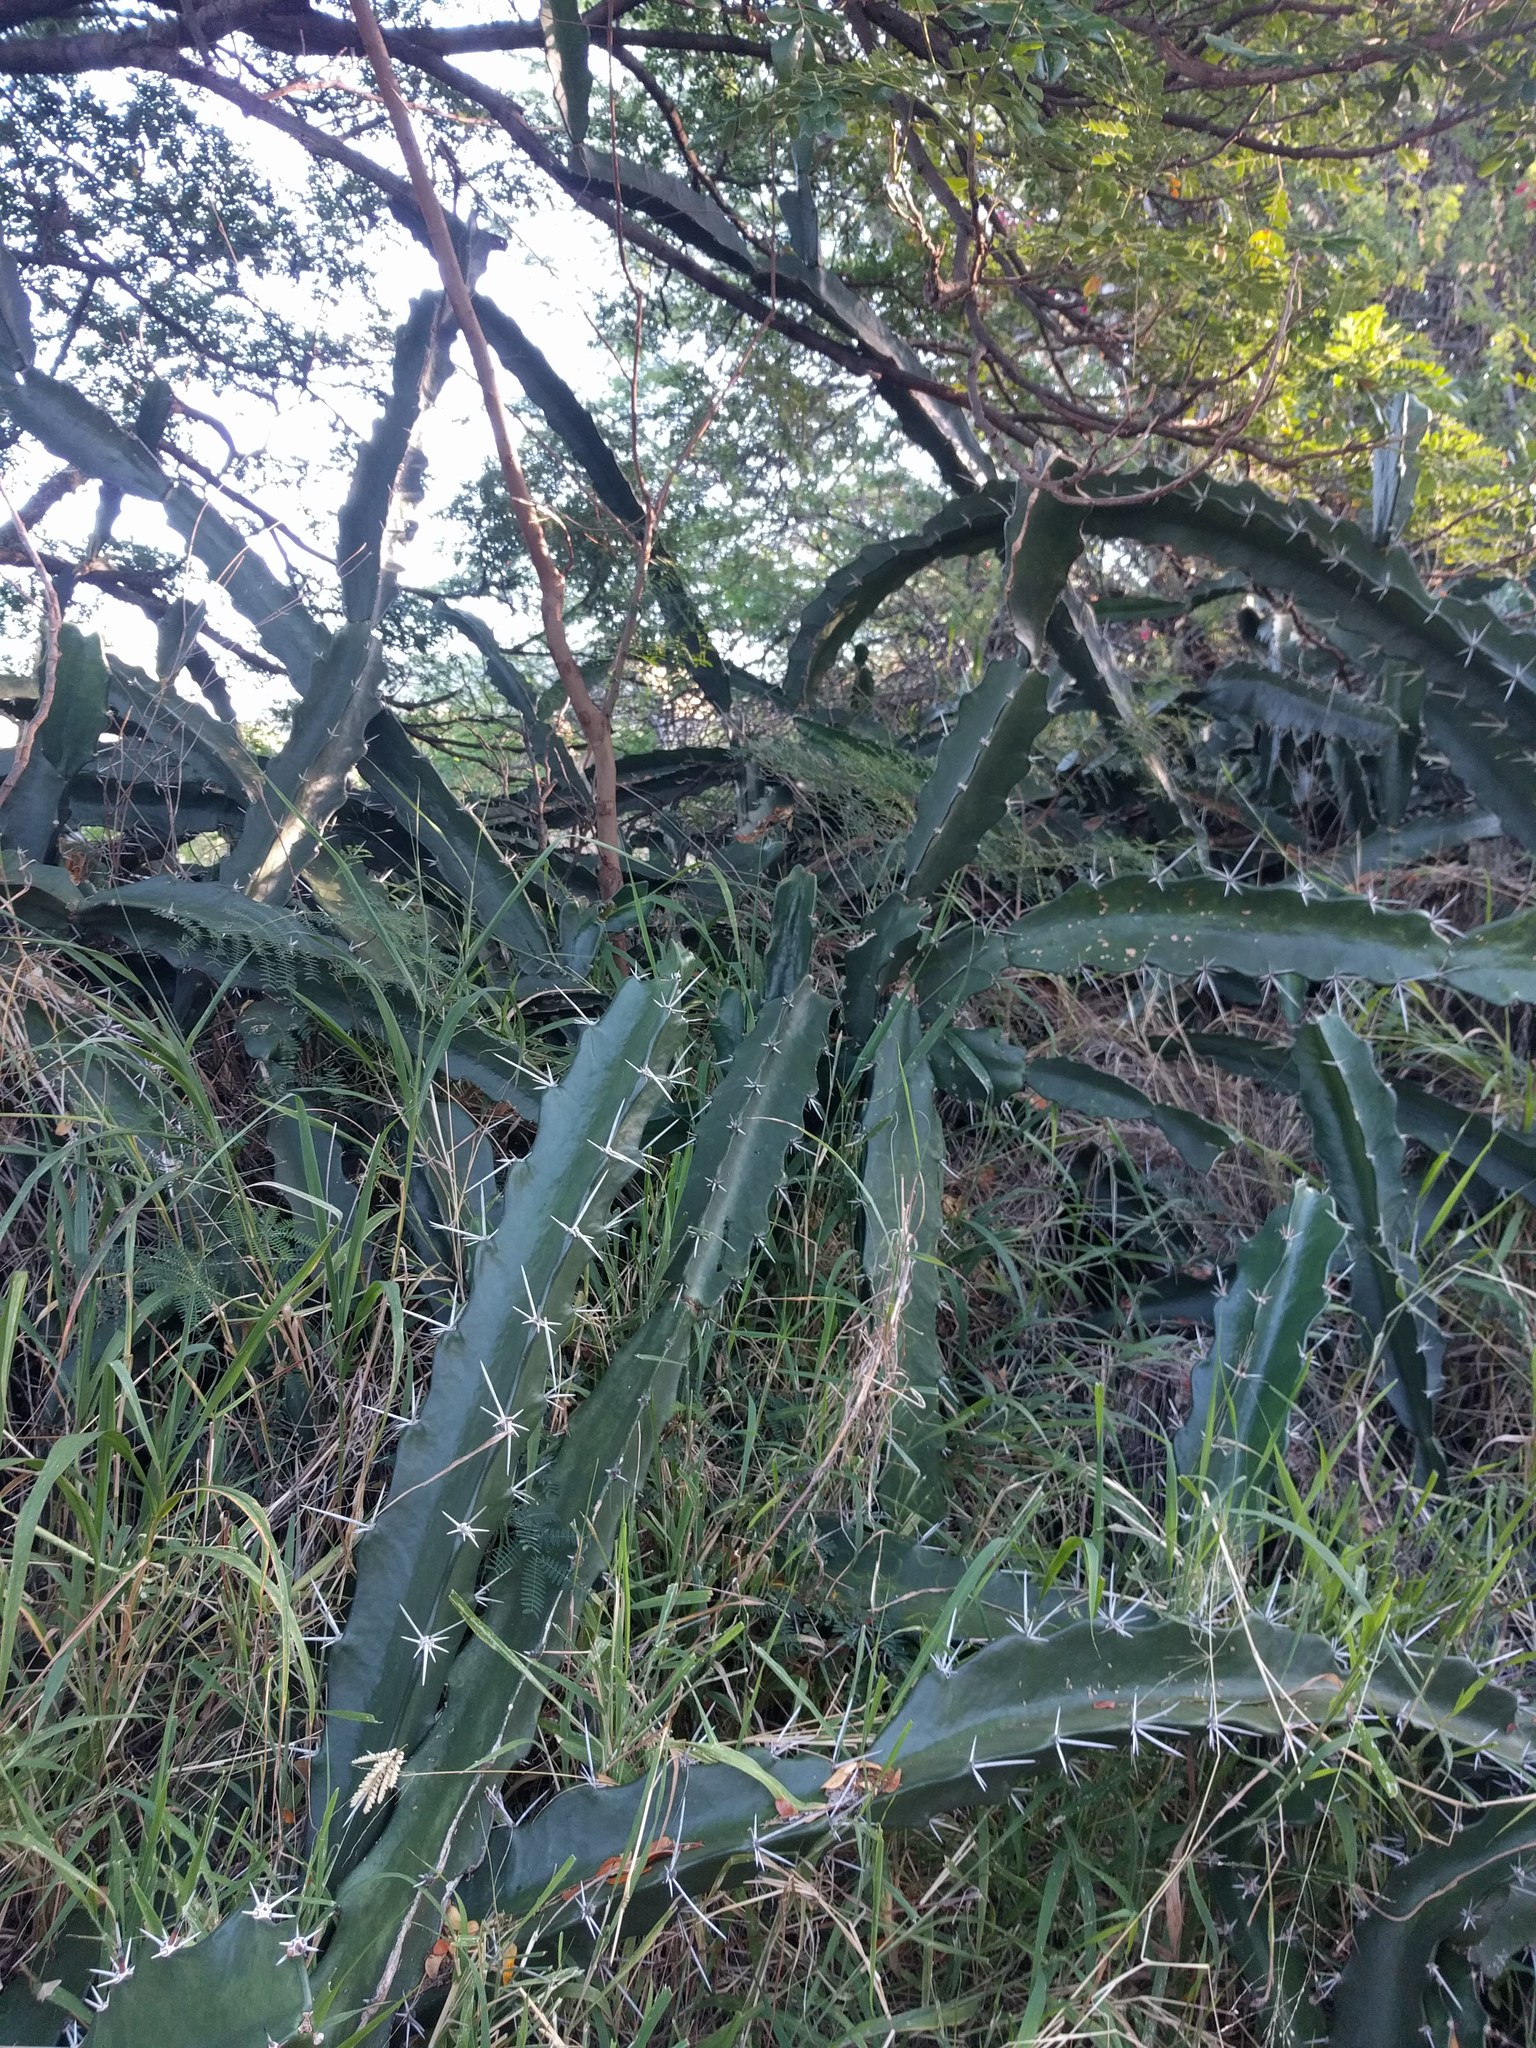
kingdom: Plantae
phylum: Tracheophyta
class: Magnoliopsida
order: Caryophyllales
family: Cactaceae
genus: Acanthocereus
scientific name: Acanthocereus tetragonus
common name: Triangle cactus
